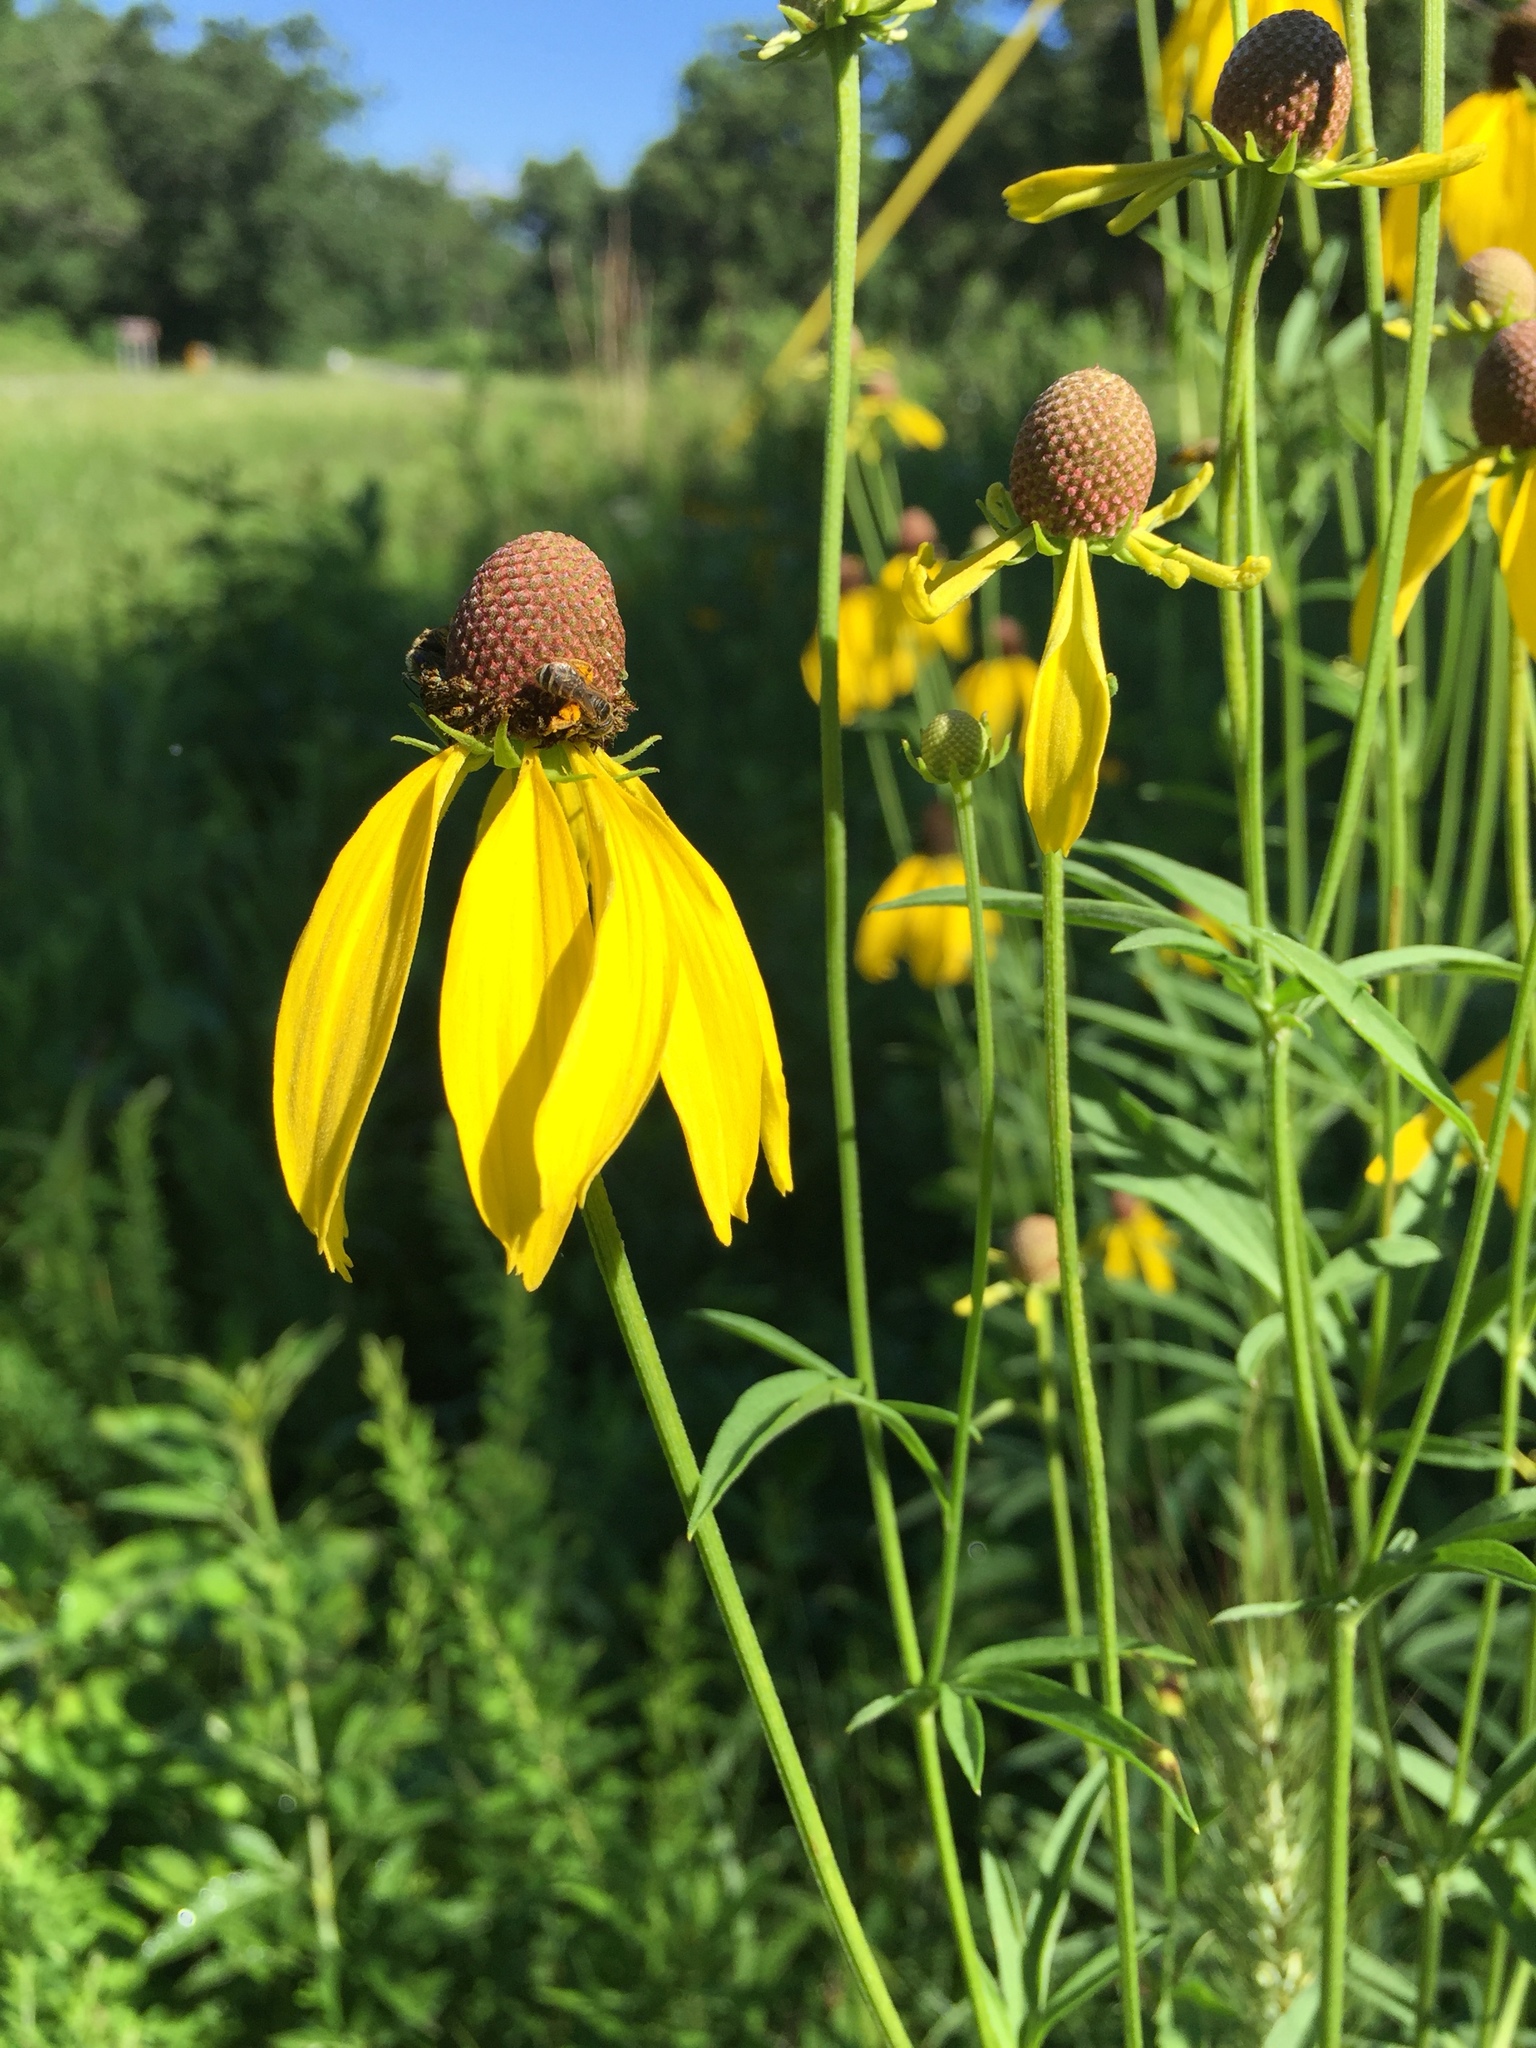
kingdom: Plantae
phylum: Tracheophyta
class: Magnoliopsida
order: Asterales
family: Asteraceae
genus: Ratibida
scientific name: Ratibida pinnata
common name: Drooping prairie-coneflower
